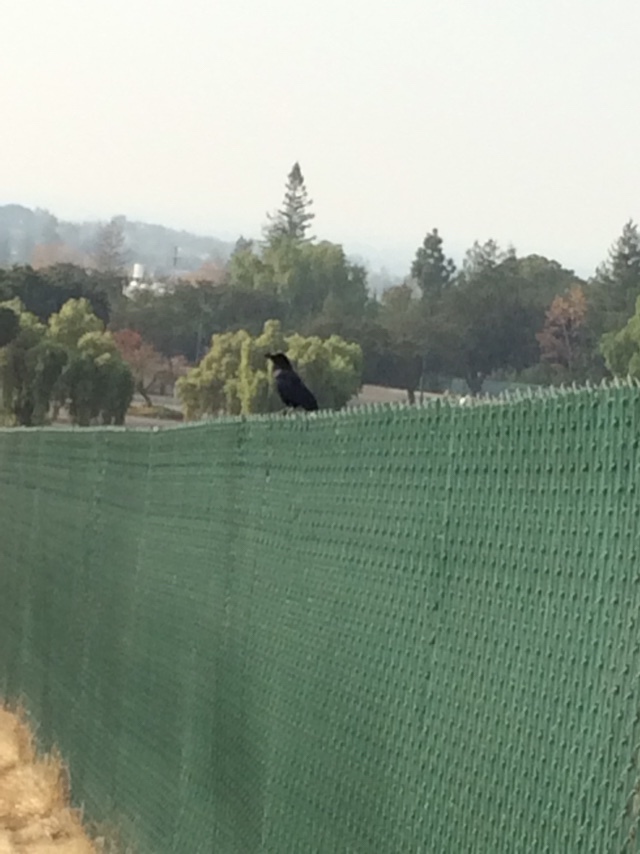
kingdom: Animalia
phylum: Chordata
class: Aves
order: Passeriformes
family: Corvidae
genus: Corvus
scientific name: Corvus brachyrhynchos
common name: American crow
